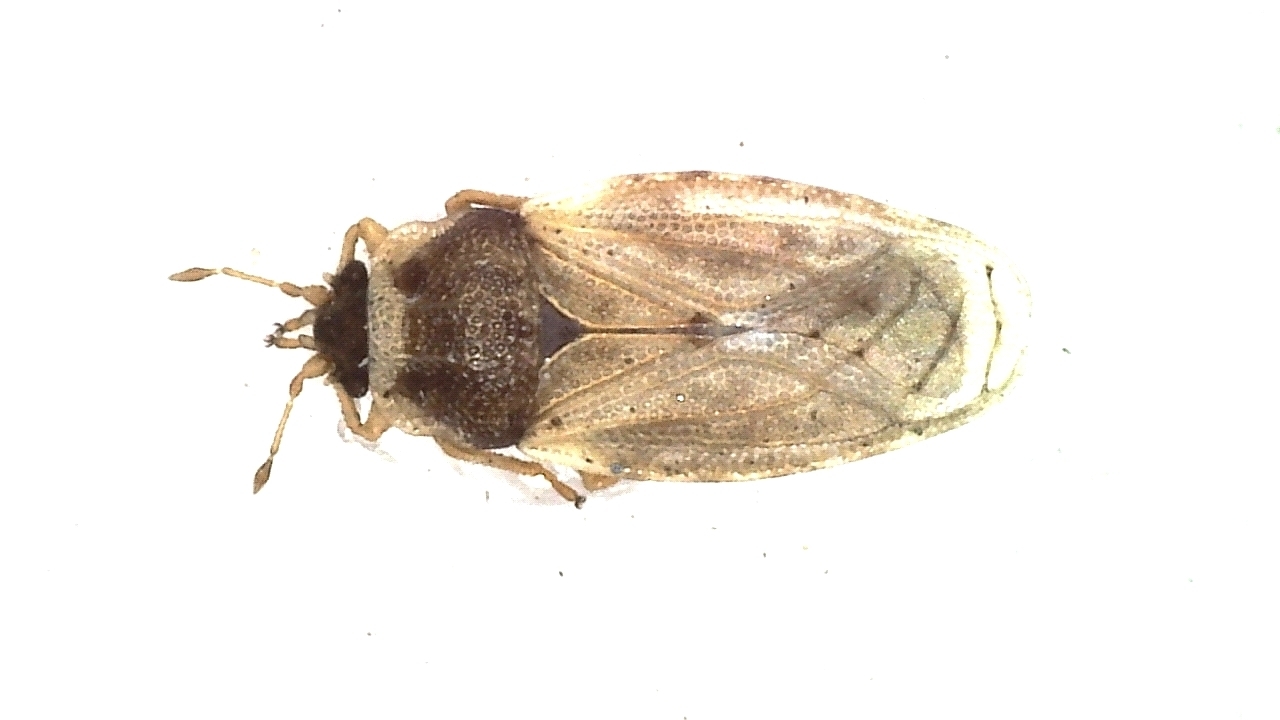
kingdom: Animalia
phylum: Arthropoda
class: Insecta
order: Hemiptera
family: Piesmatidae
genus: Piesma
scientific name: Piesma maculata
